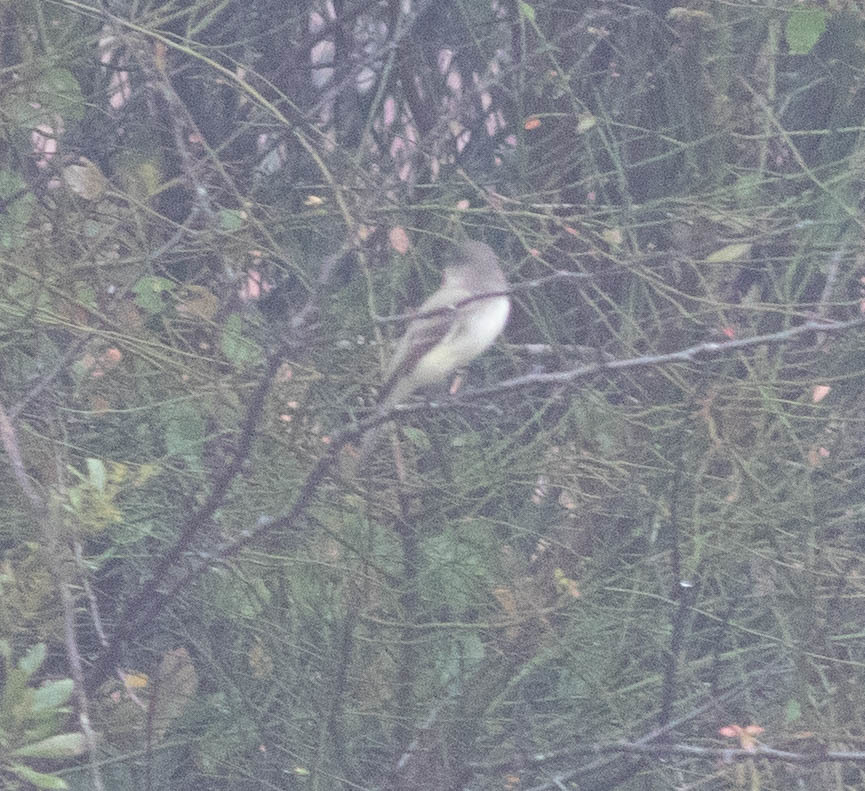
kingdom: Animalia
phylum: Chordata
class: Aves
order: Passeriformes
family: Tyrannidae
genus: Sayornis
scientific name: Sayornis phoebe
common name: Eastern phoebe
